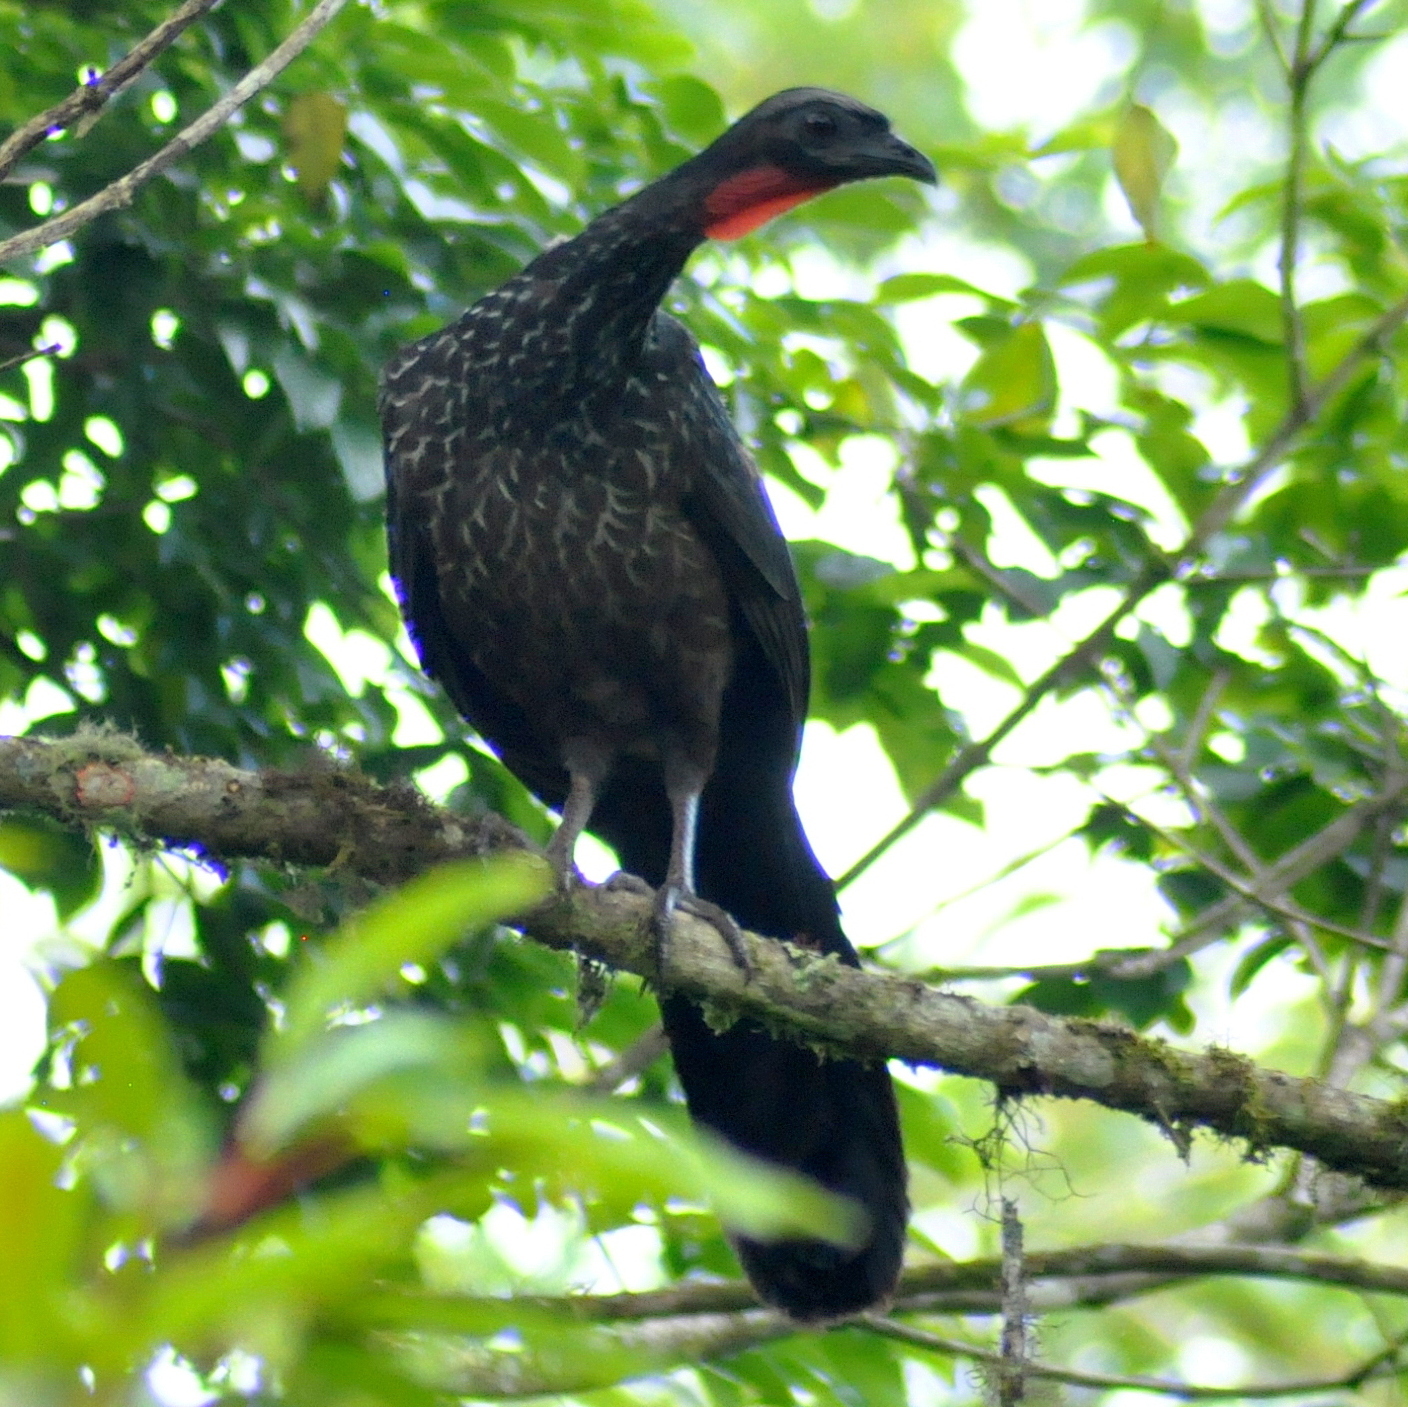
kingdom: Animalia
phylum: Chordata
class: Aves
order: Galliformes
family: Cracidae
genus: Penelope
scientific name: Penelope obscura
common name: Dusky-legged guan
